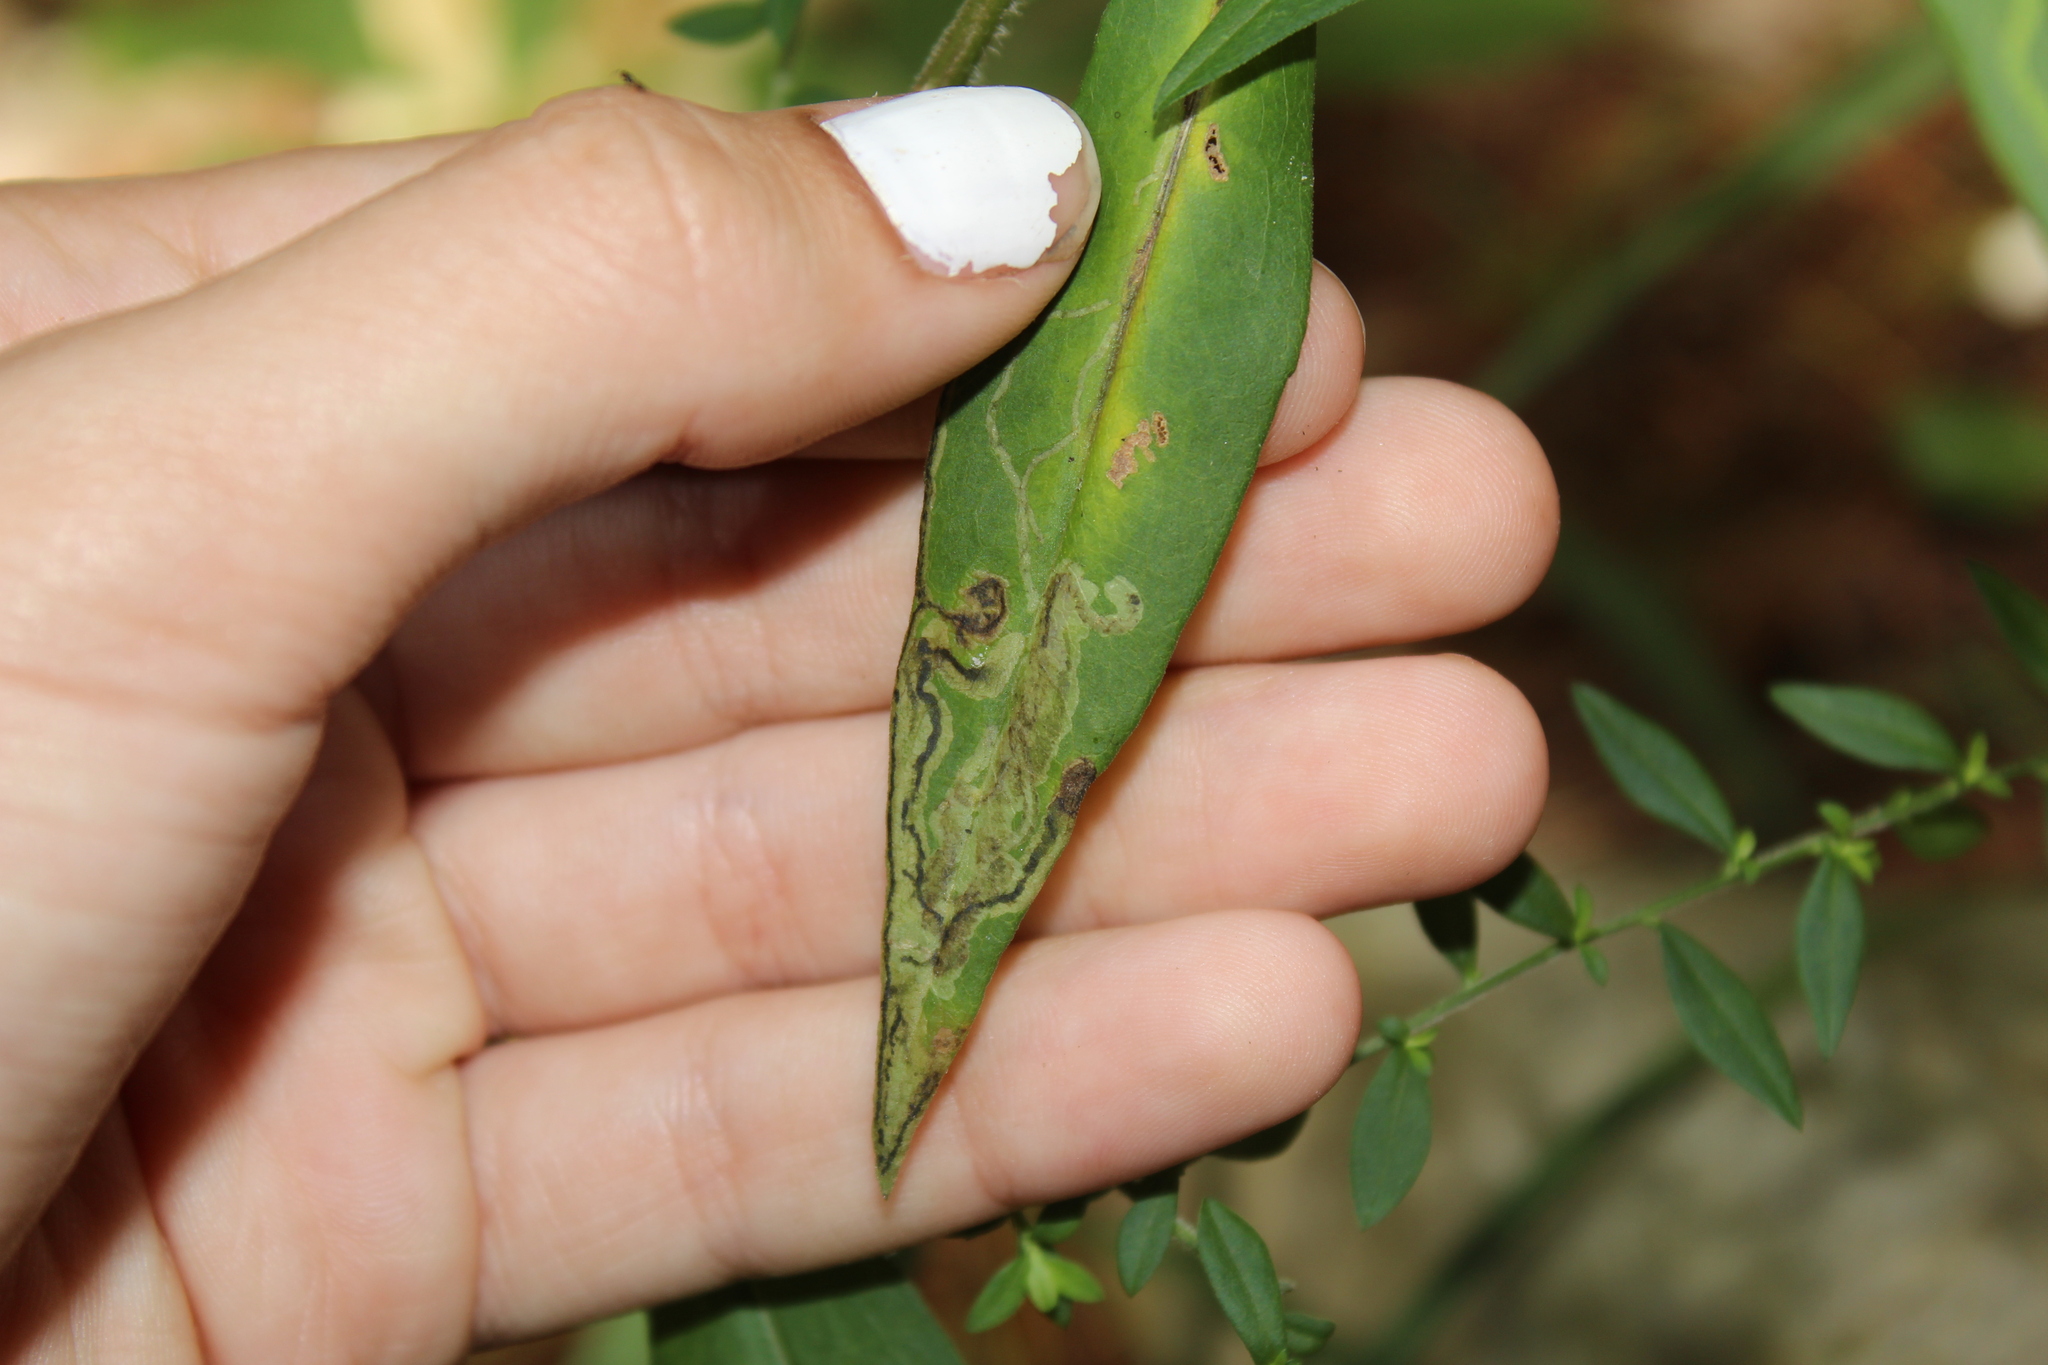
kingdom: Animalia
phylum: Arthropoda
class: Insecta
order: Diptera
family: Agromyzidae
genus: Liriomyza
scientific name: Liriomyza eupatorii
